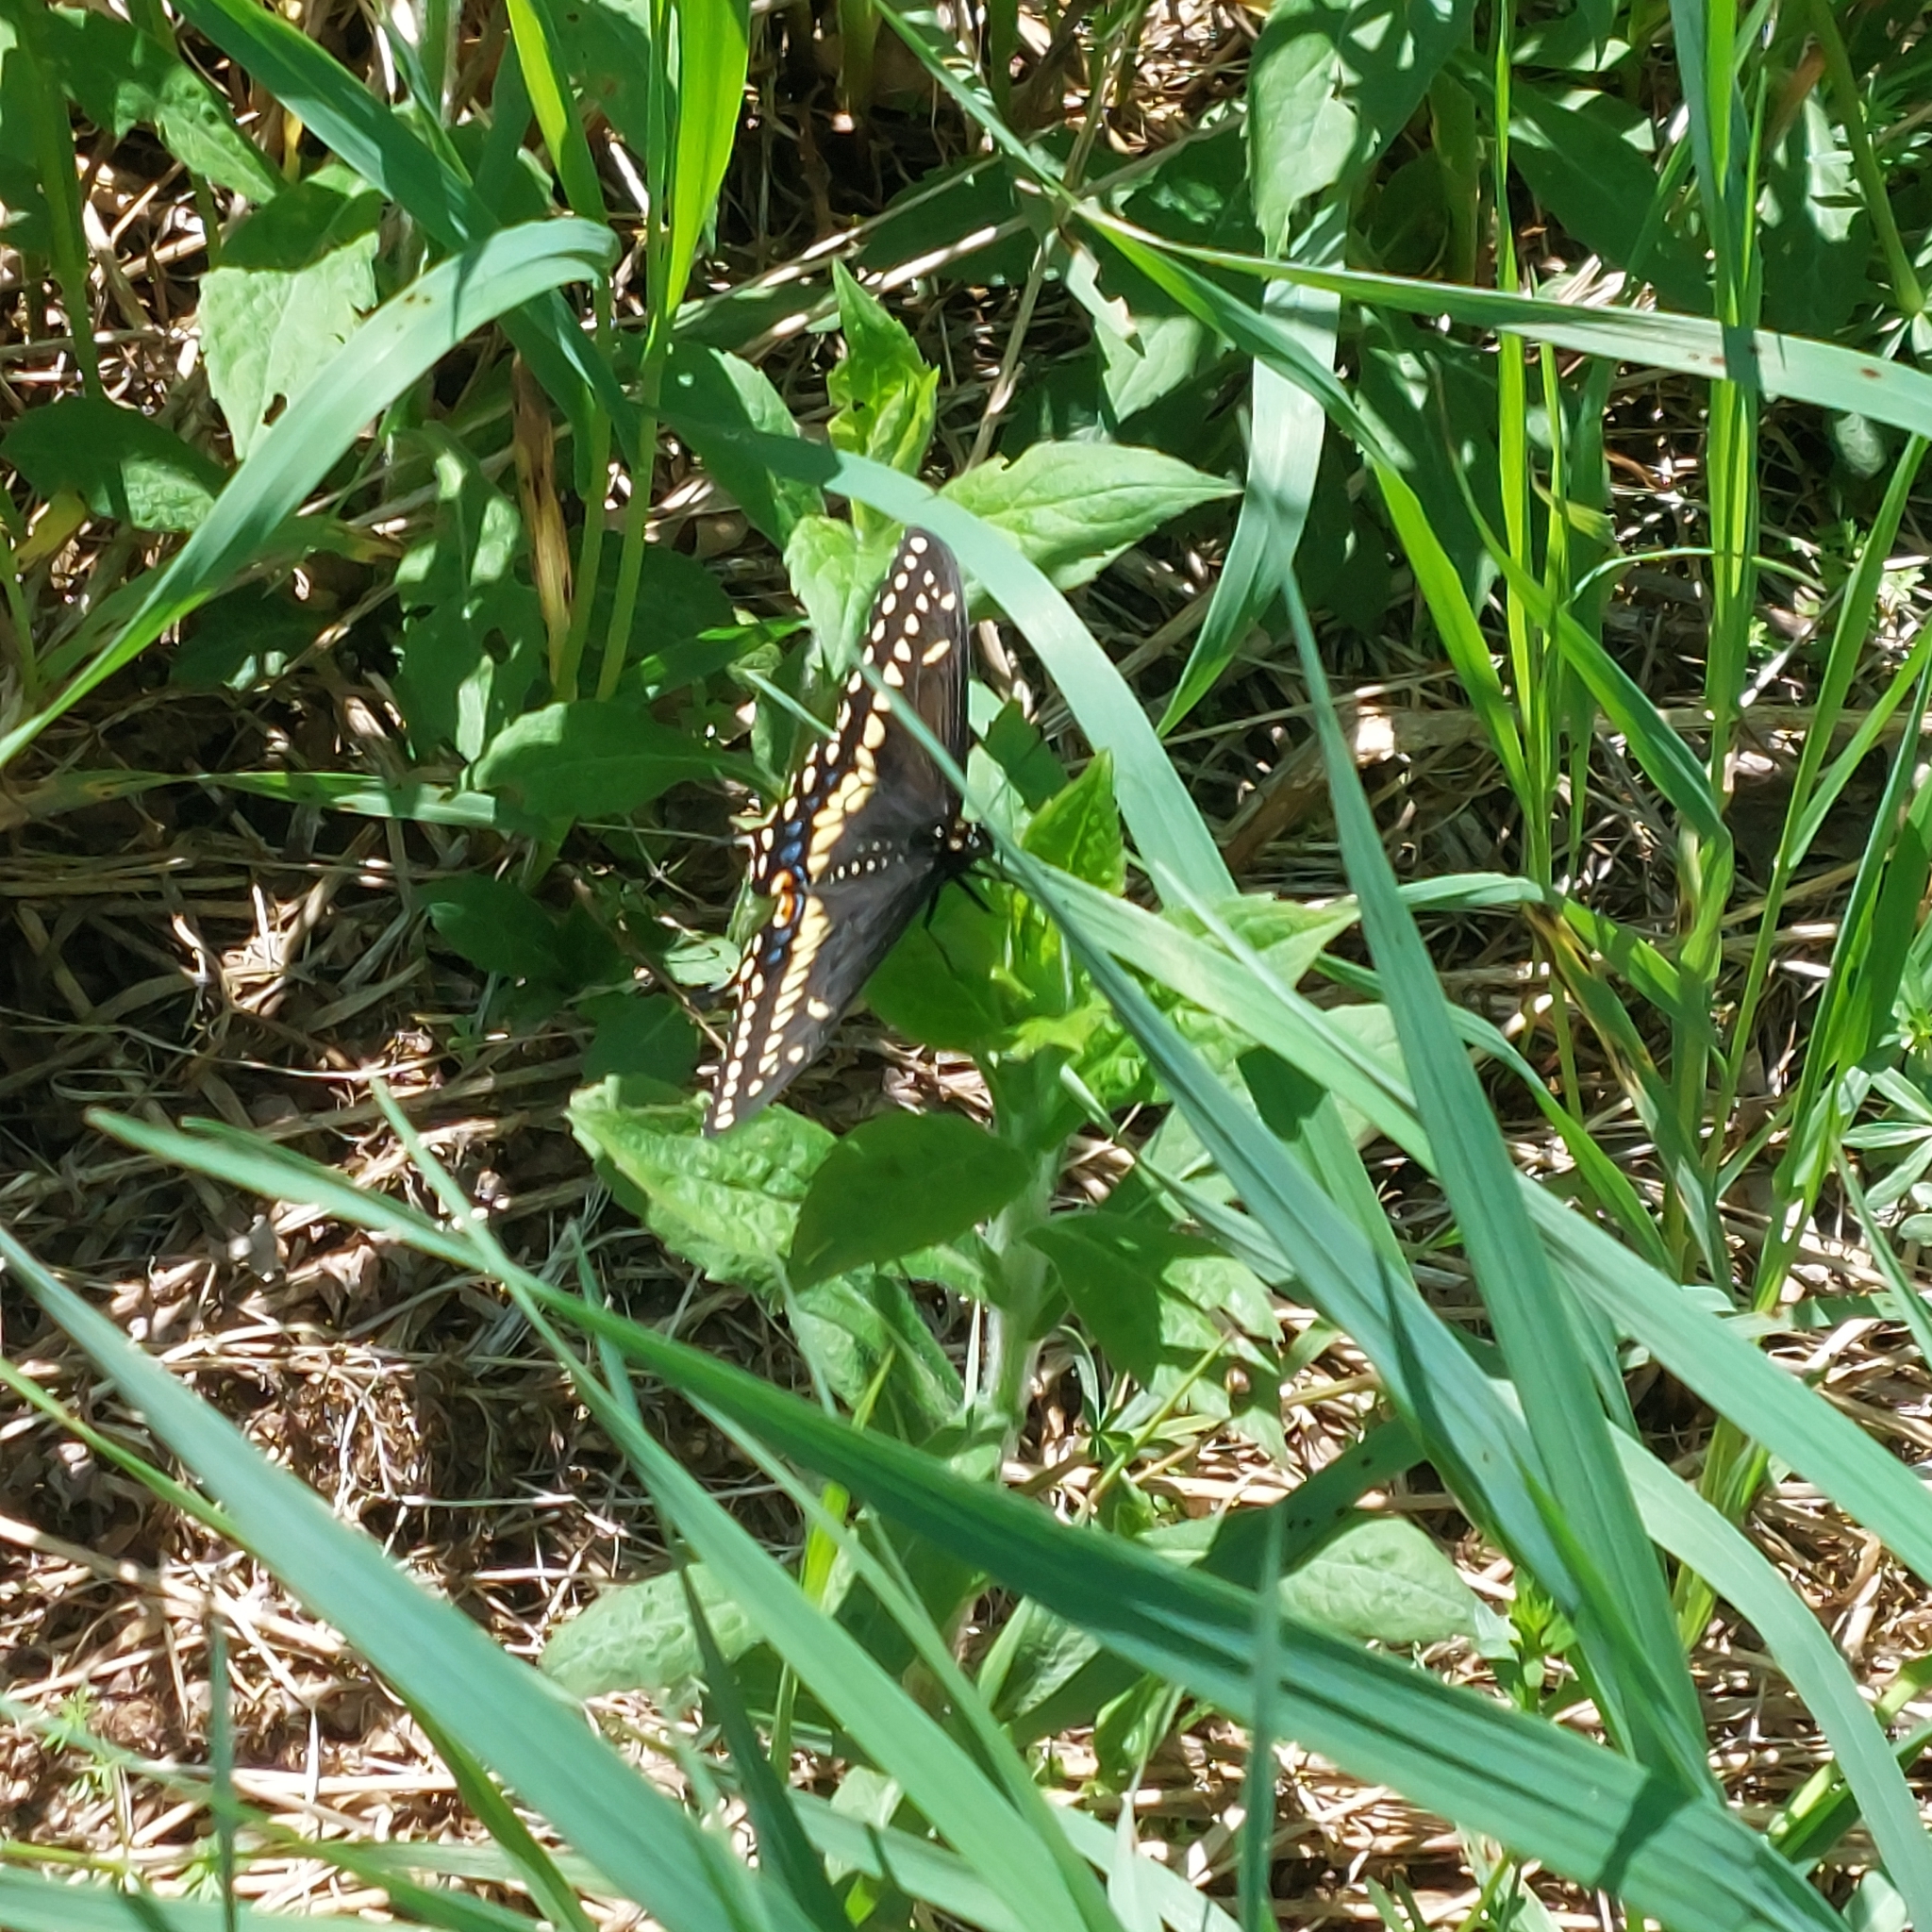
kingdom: Animalia
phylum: Arthropoda
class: Insecta
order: Lepidoptera
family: Papilionidae
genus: Papilio
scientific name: Papilio polyxenes
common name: Black swallowtail
